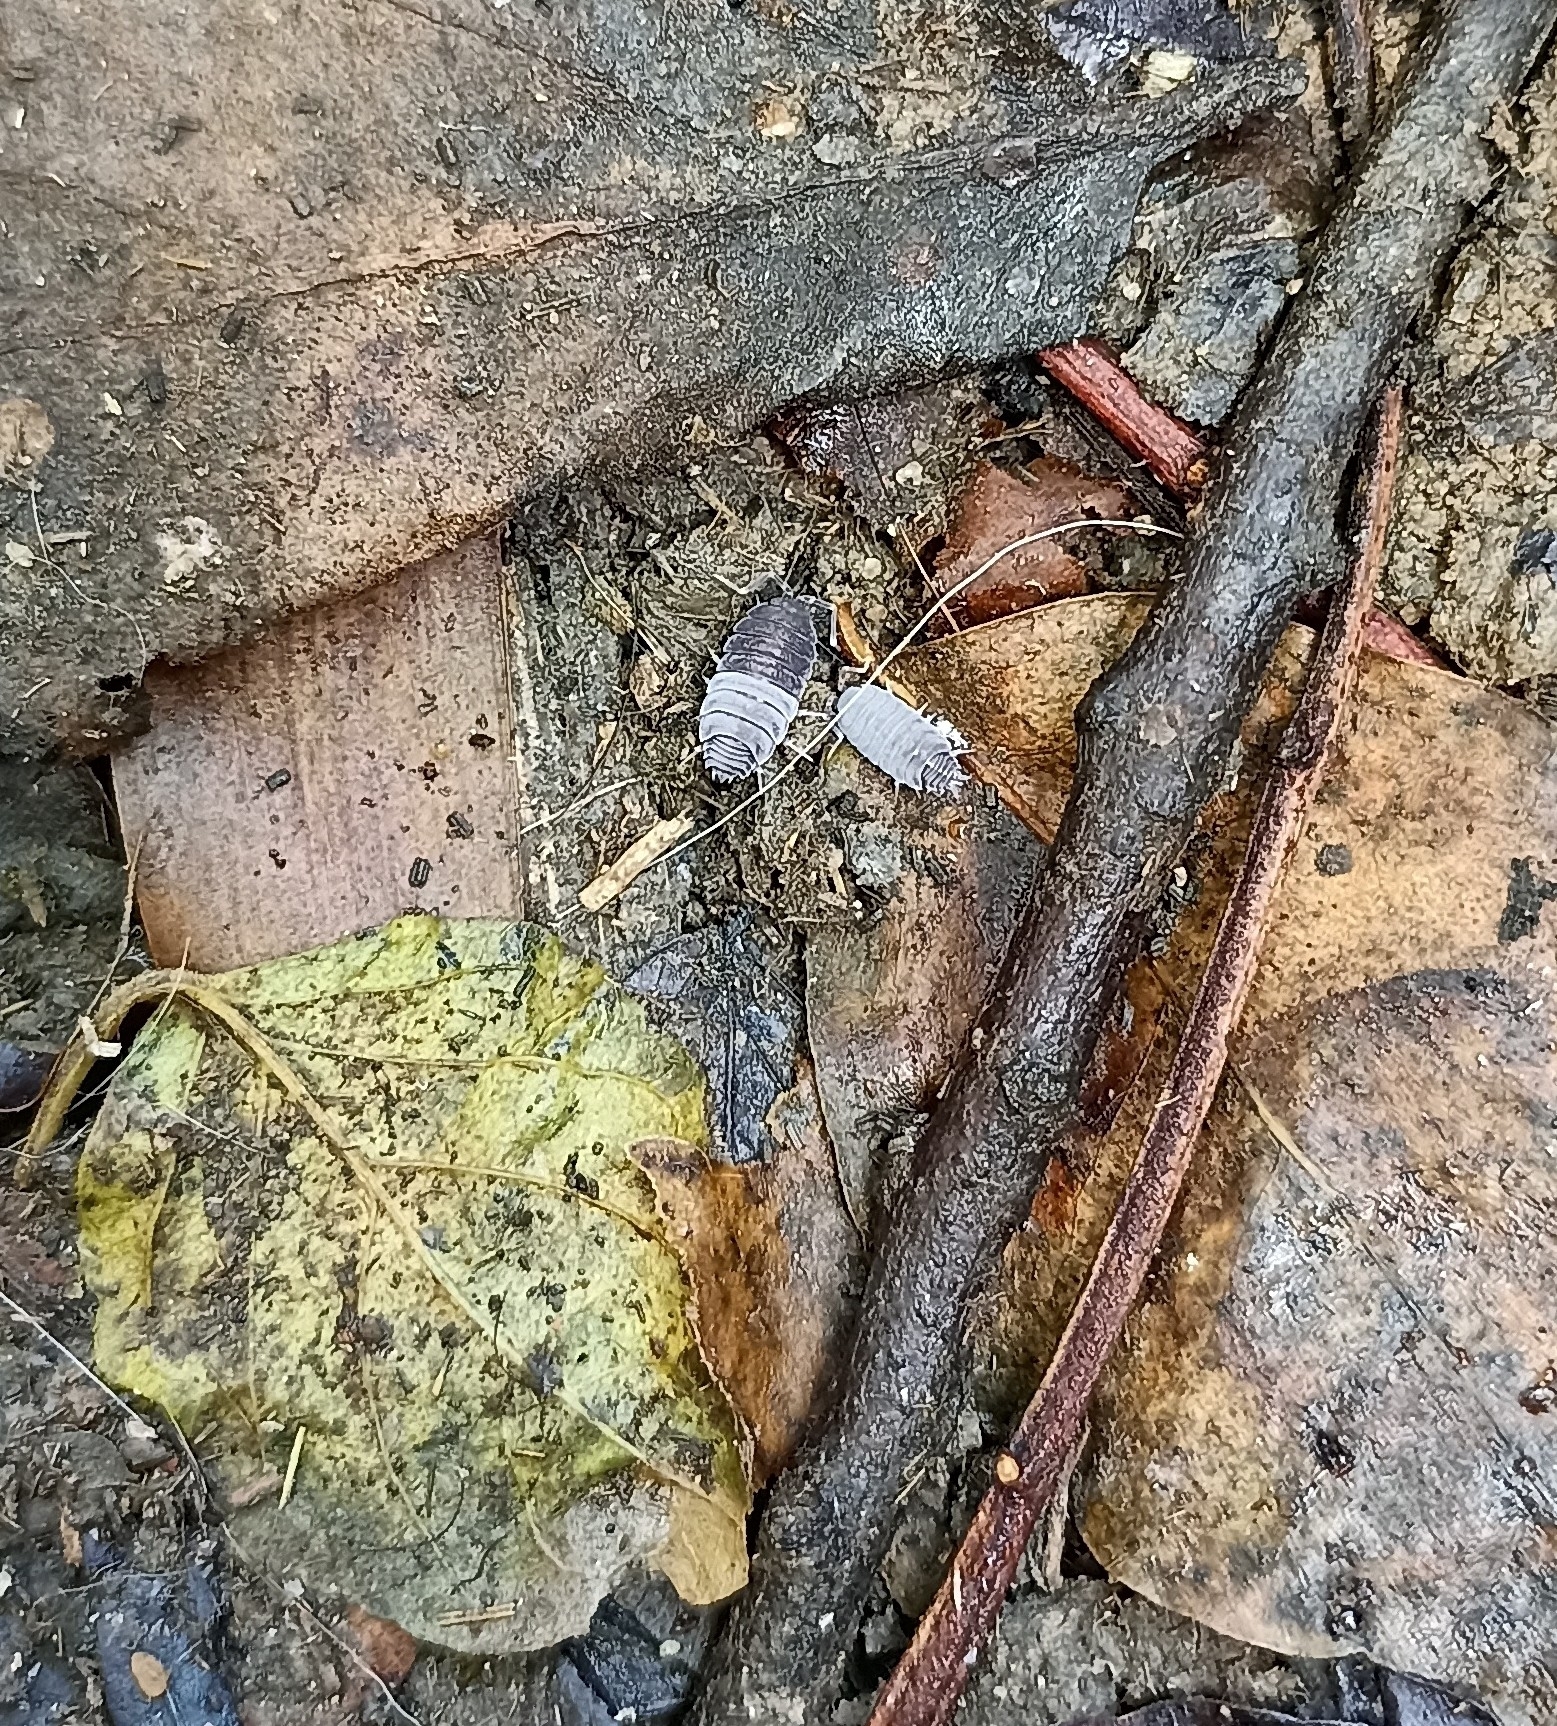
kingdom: Animalia
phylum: Arthropoda
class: Malacostraca
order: Isopoda
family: Armadillidiidae
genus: Armadillidium
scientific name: Armadillidium vulgare
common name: Common pill woodlouse
